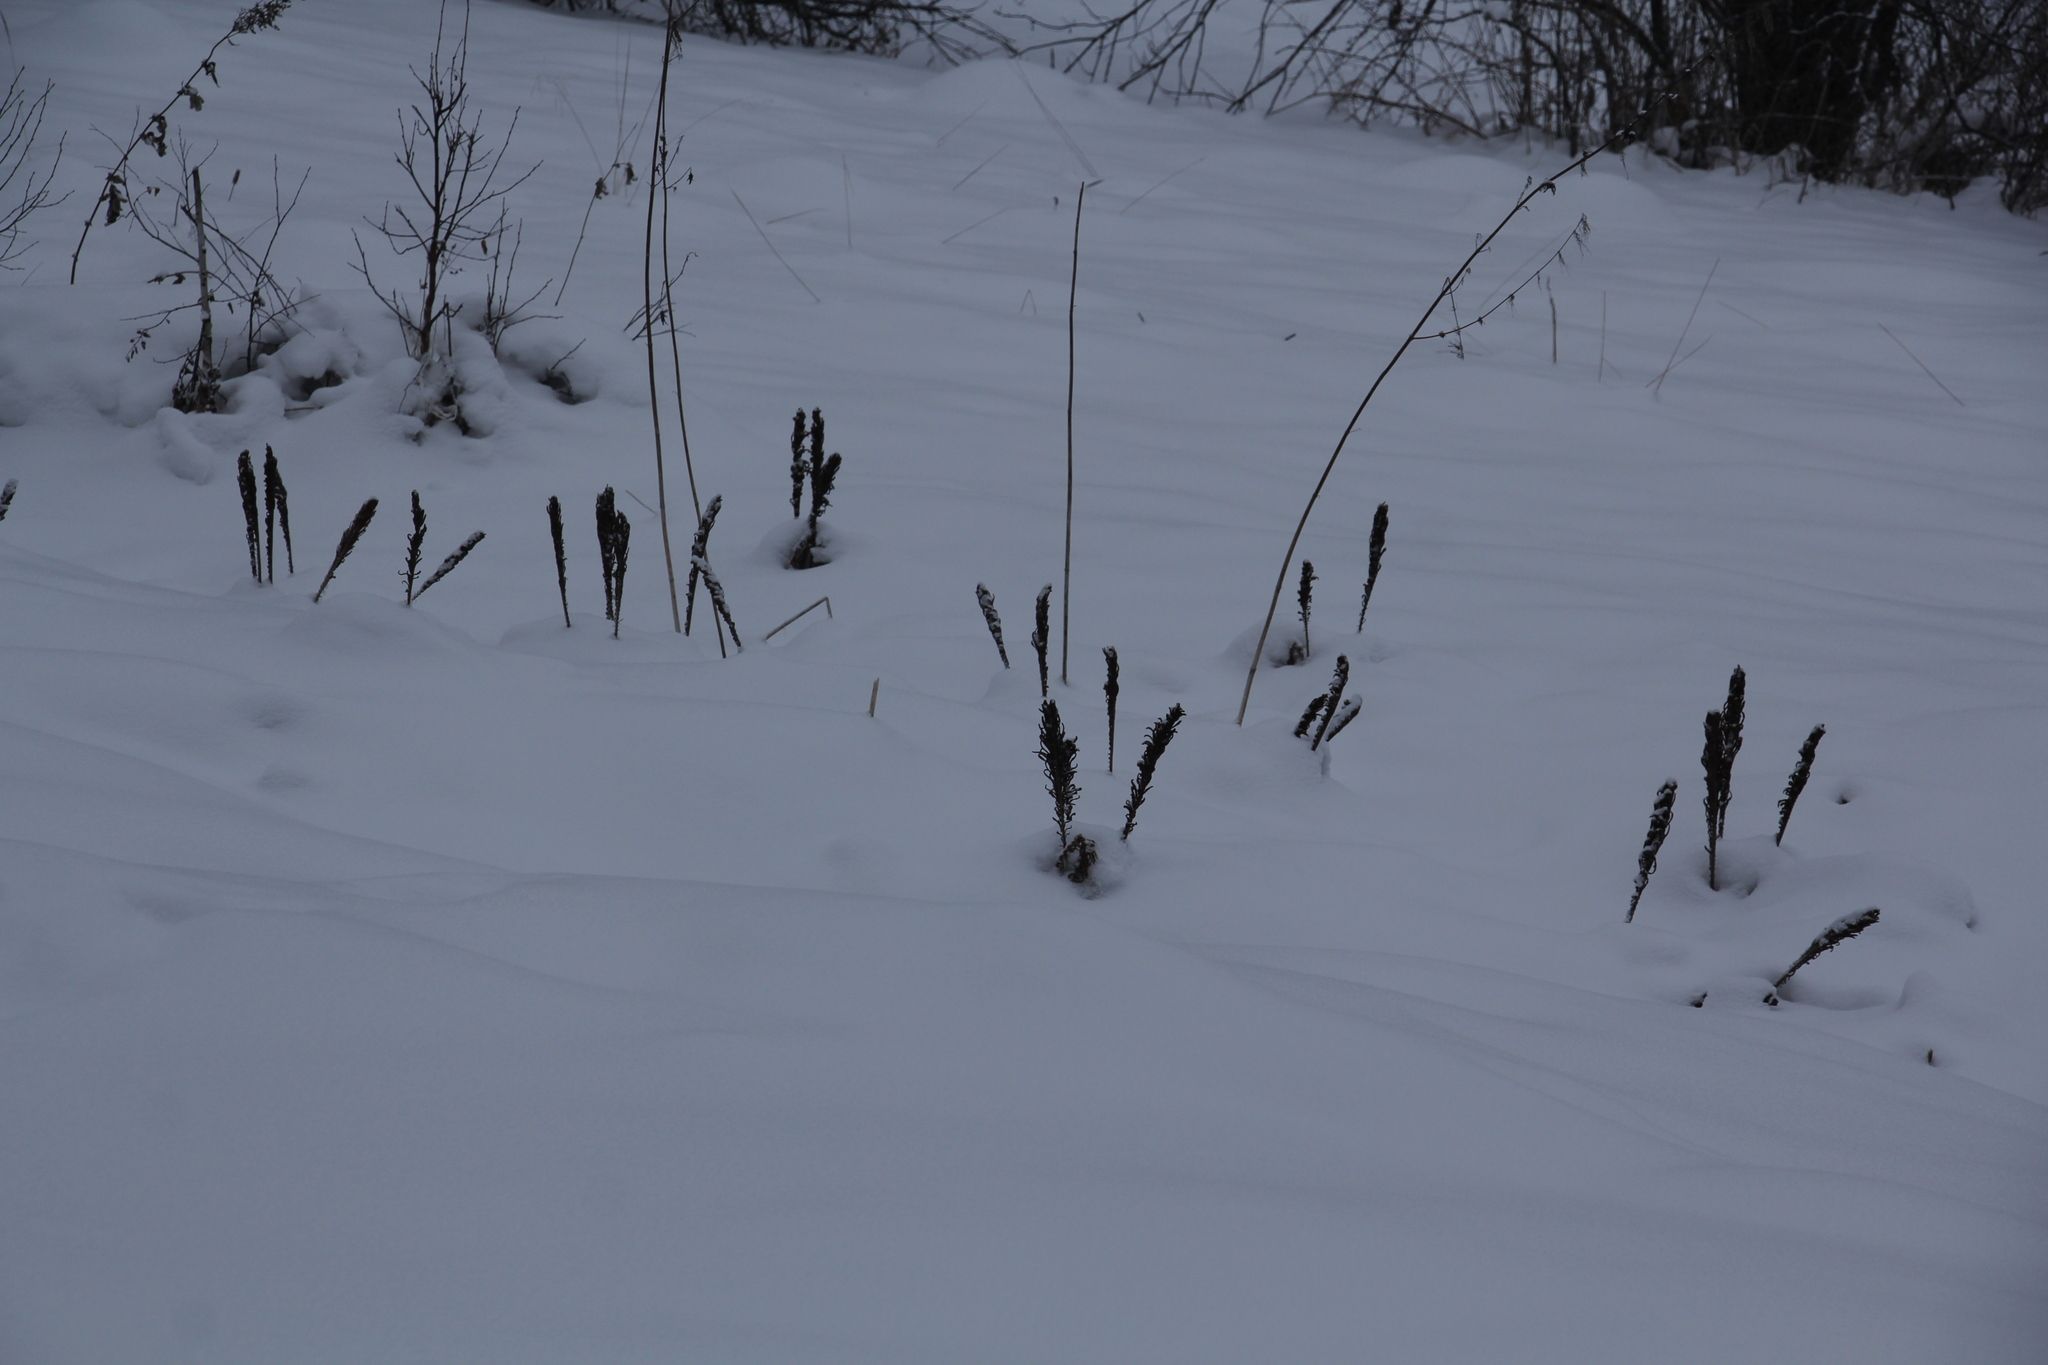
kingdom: Plantae
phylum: Tracheophyta
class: Polypodiopsida
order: Polypodiales
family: Onocleaceae
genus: Matteuccia
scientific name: Matteuccia struthiopteris
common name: Ostrich fern
